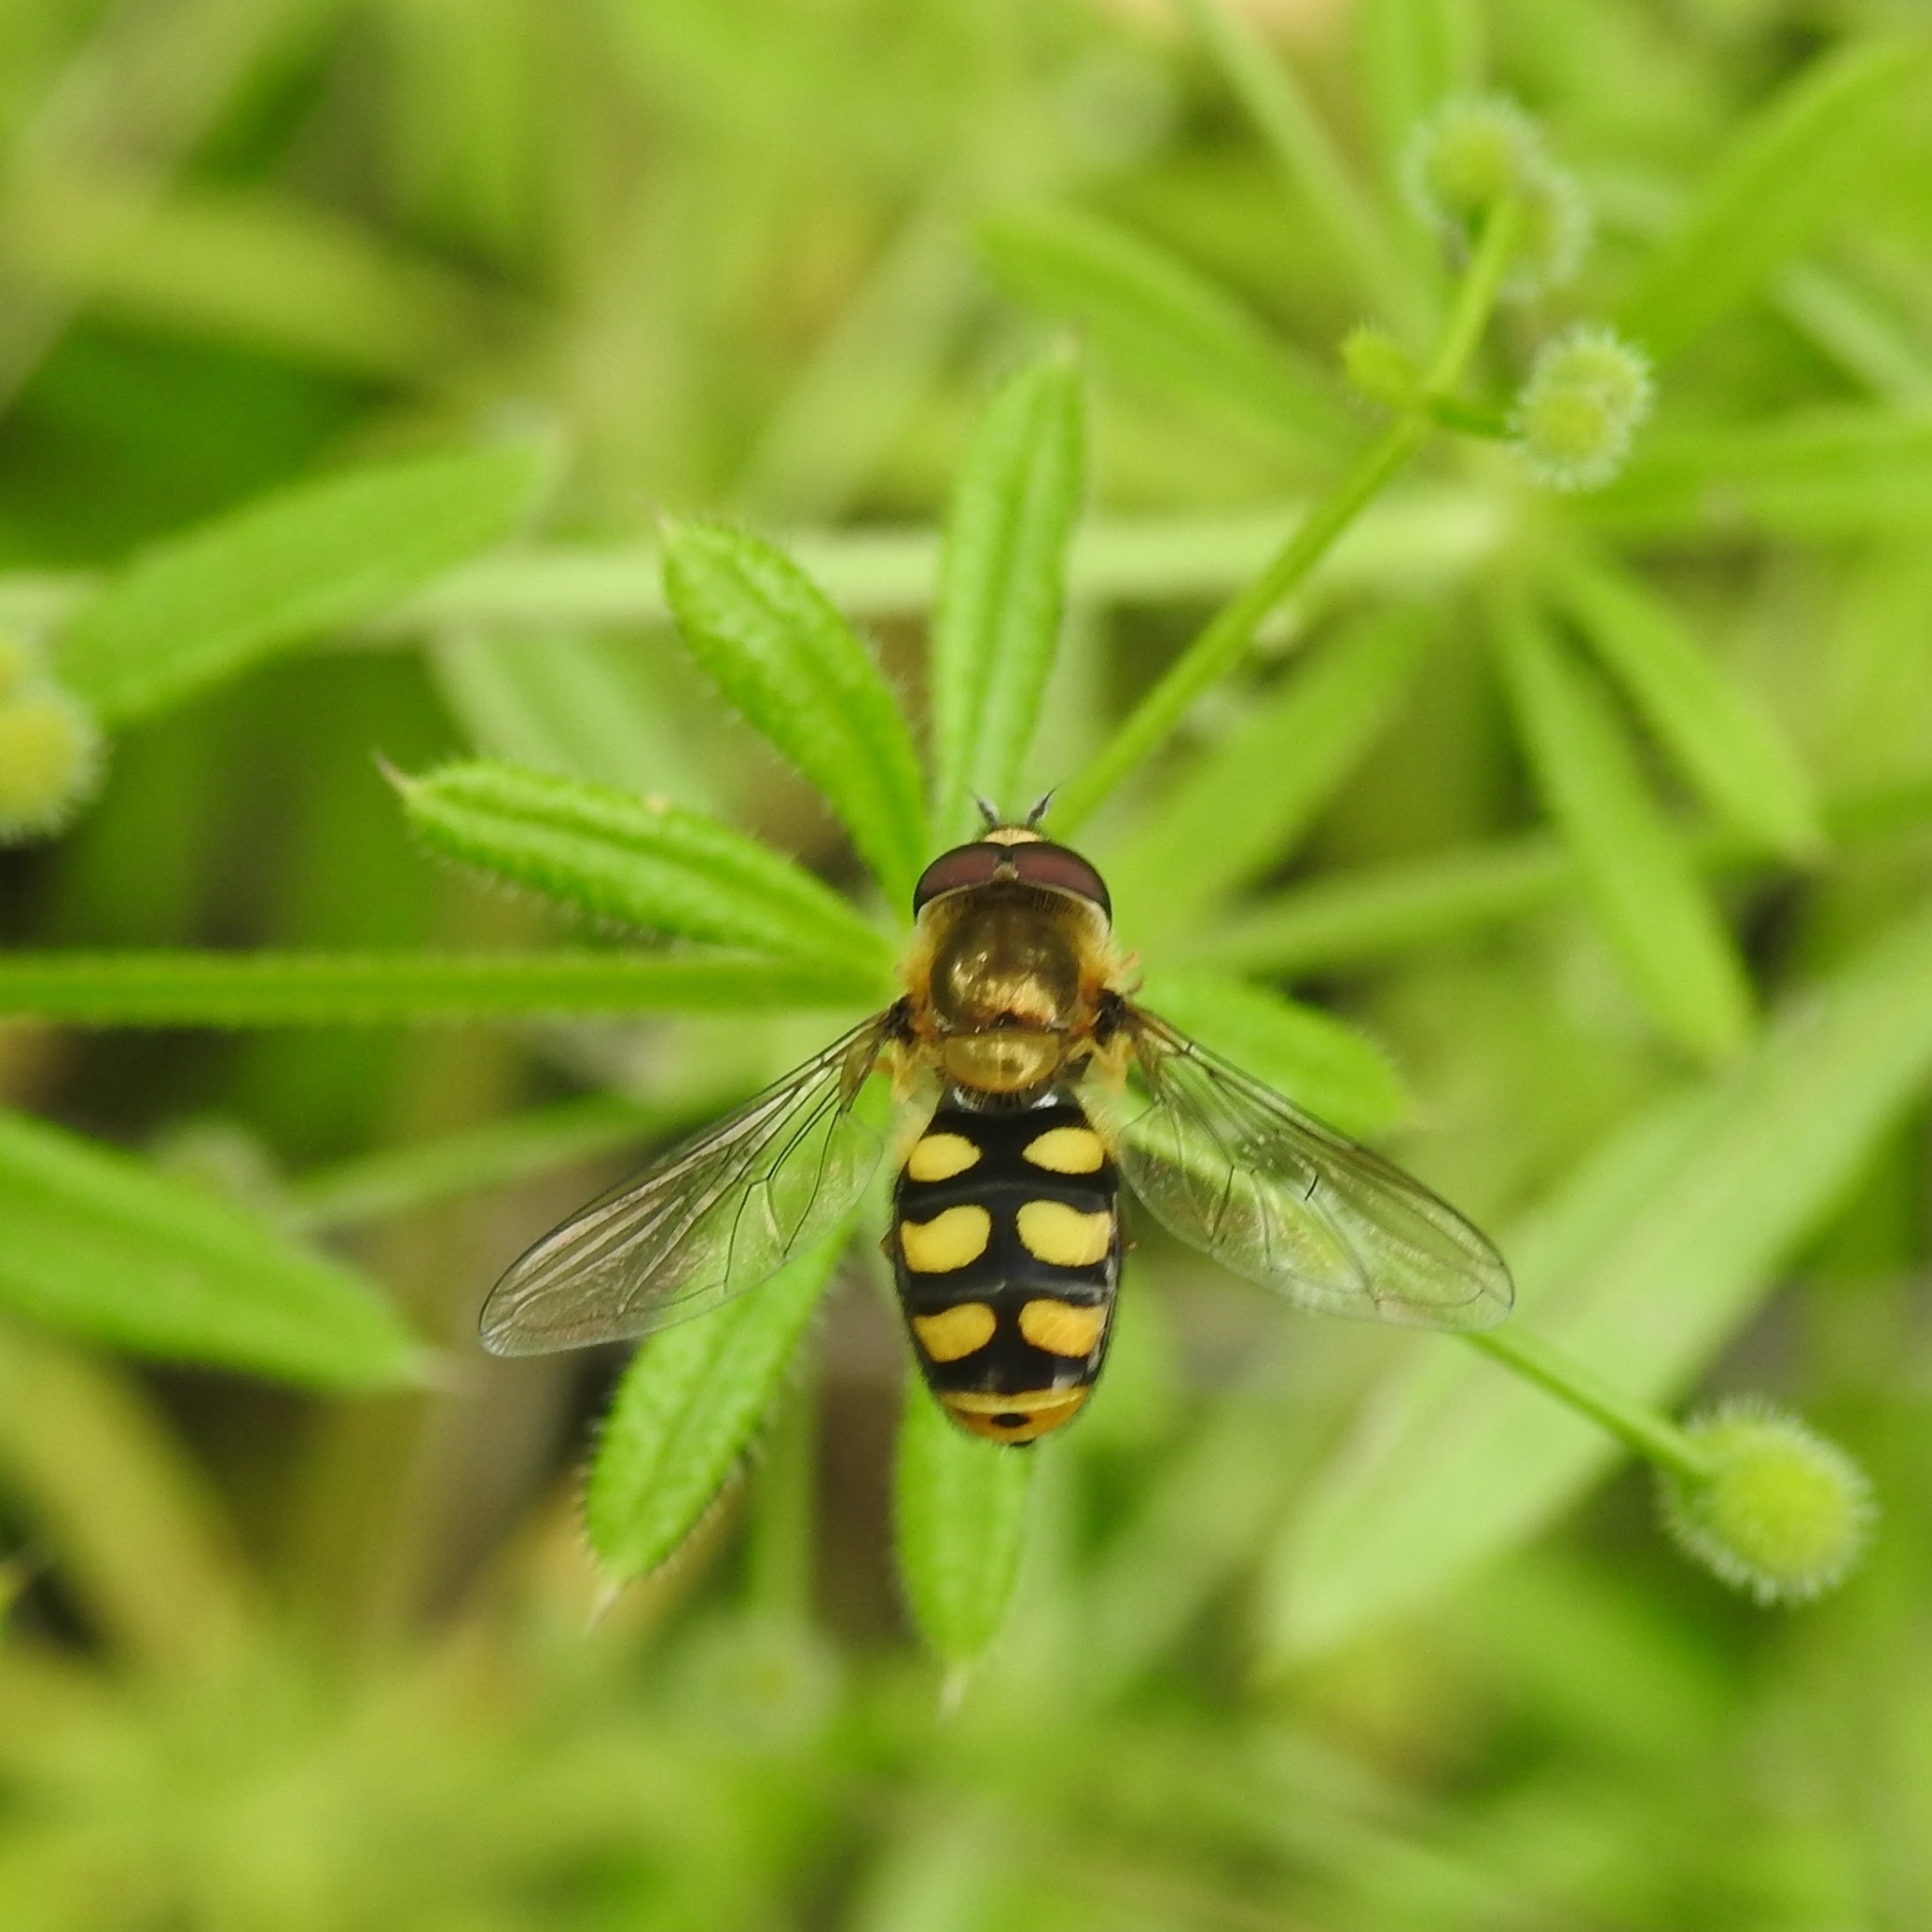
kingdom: Animalia
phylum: Arthropoda
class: Insecta
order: Diptera
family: Syrphidae
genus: Eupeodes
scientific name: Eupeodes
